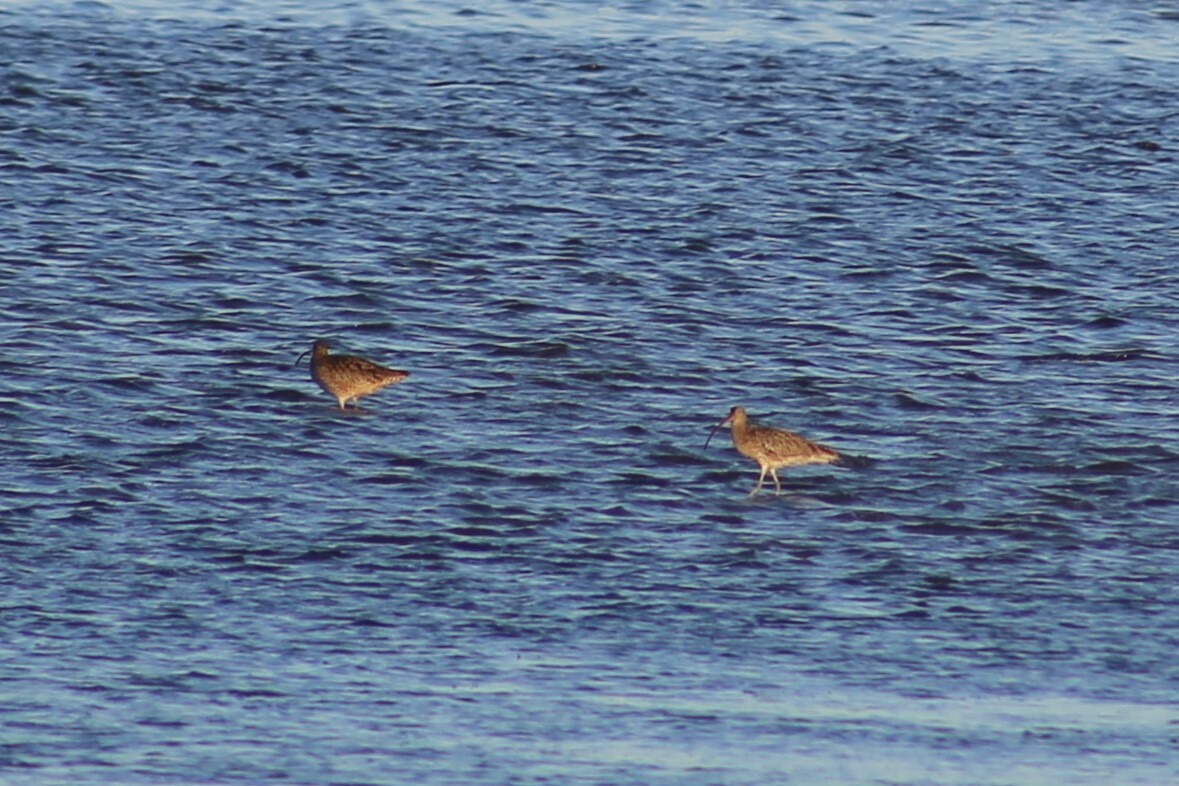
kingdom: Animalia
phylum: Chordata
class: Aves
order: Charadriiformes
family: Scolopacidae
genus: Numenius
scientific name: Numenius madagascariensis
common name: Far eastern curlew
